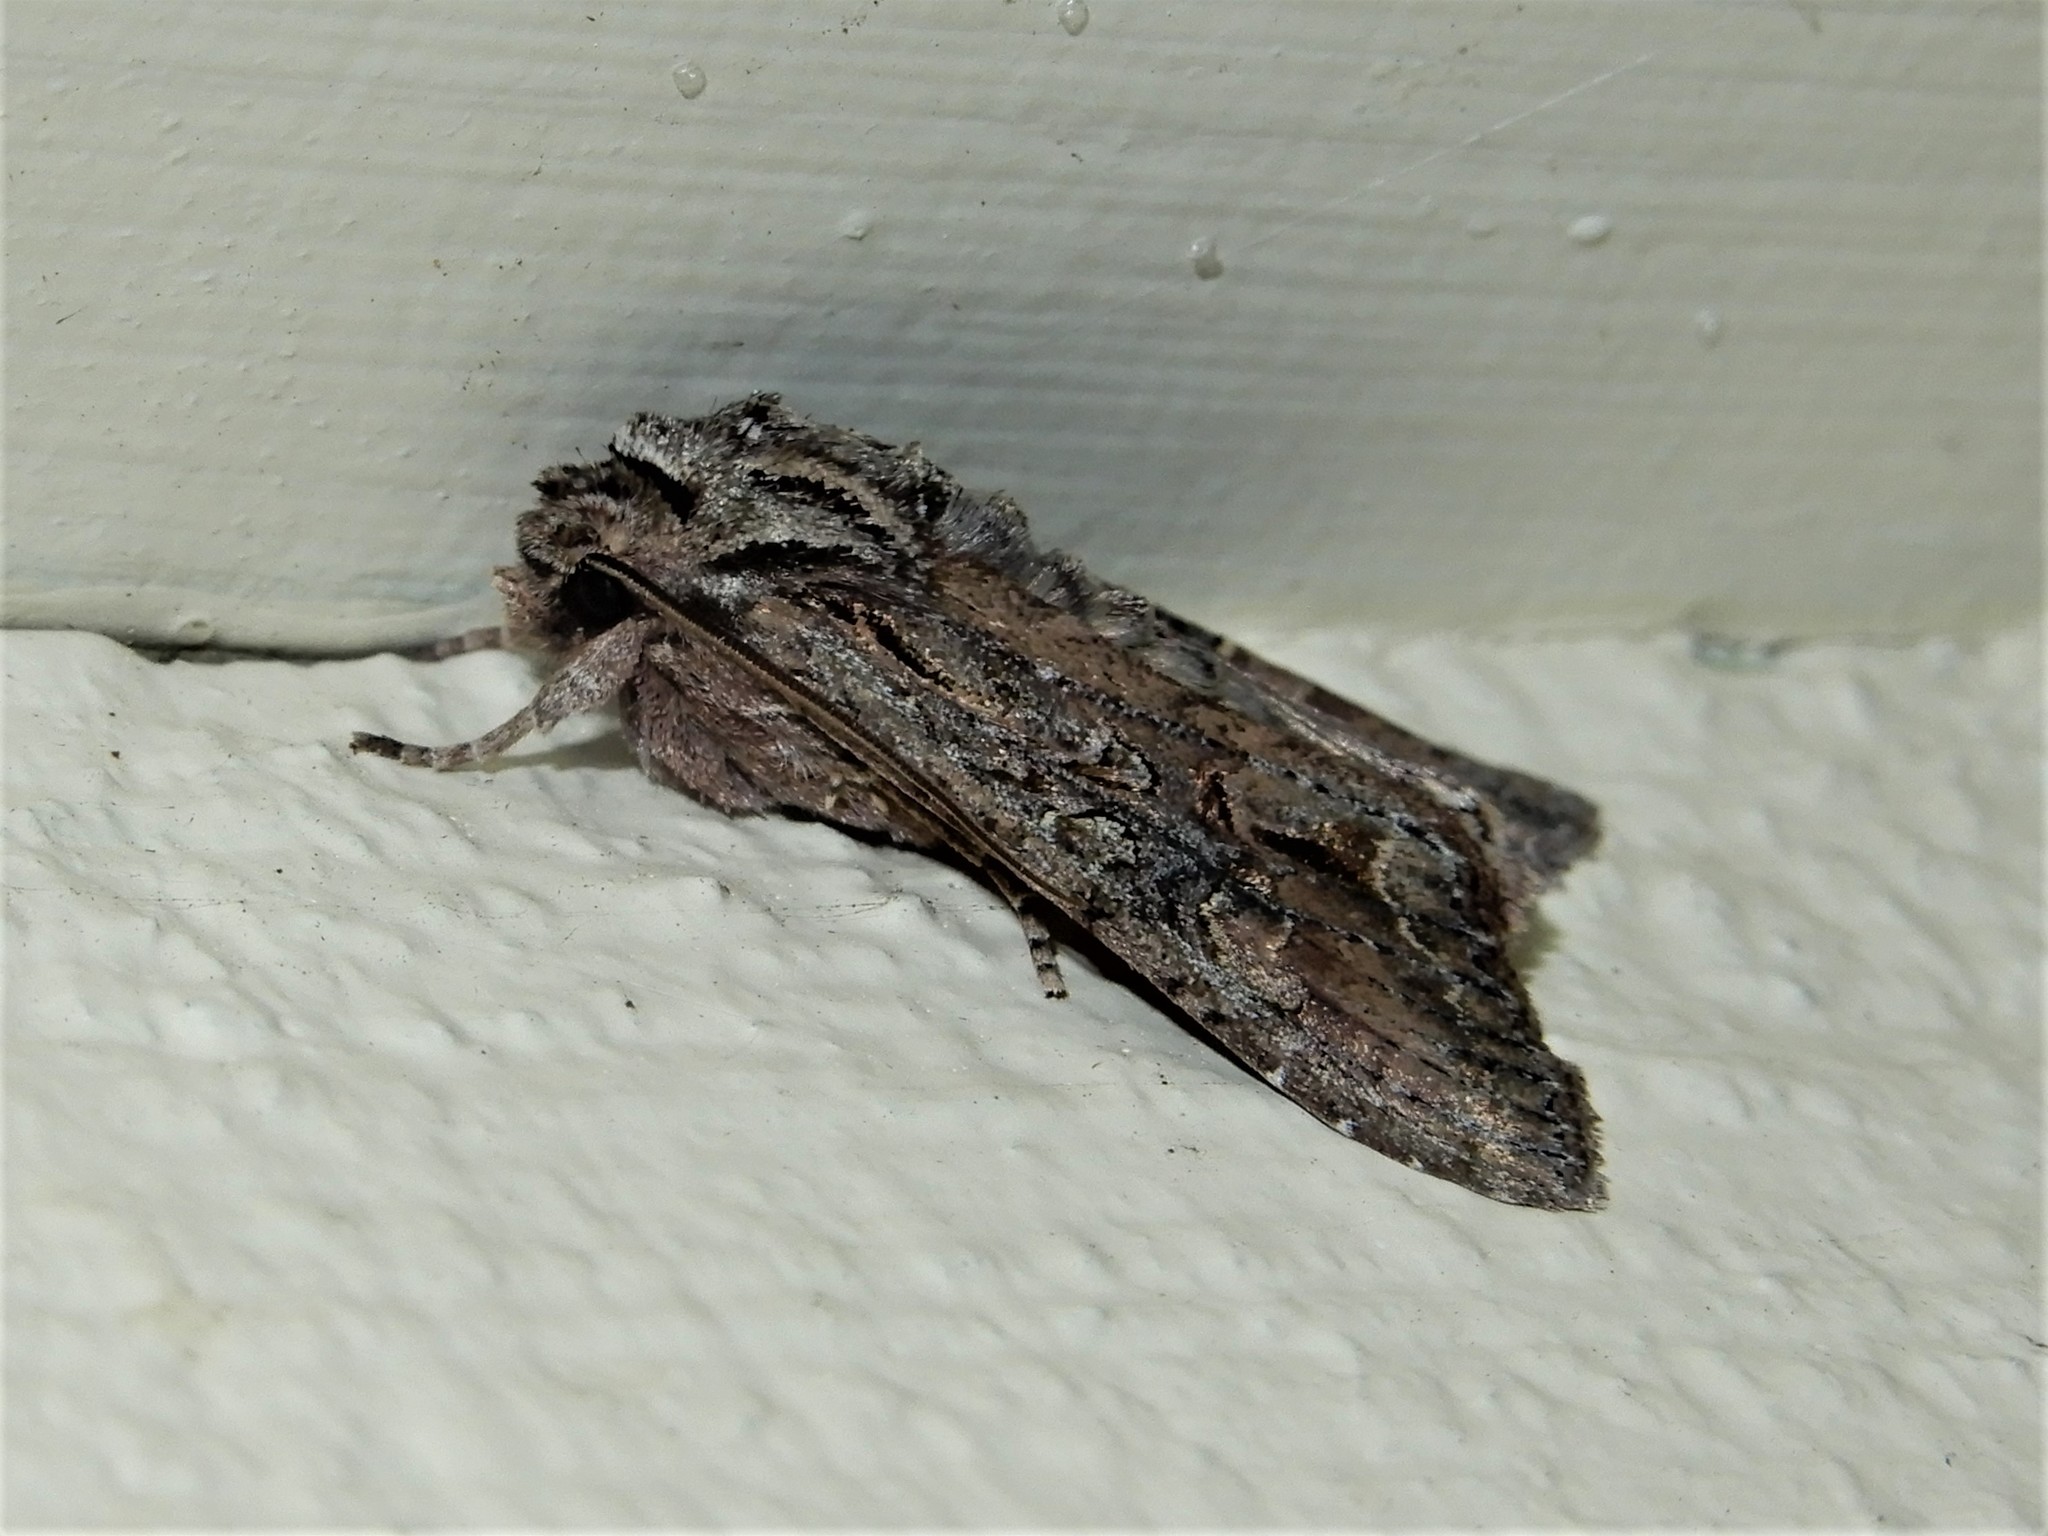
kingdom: Animalia
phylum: Arthropoda
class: Insecta
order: Lepidoptera
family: Noctuidae
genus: Ichneutica
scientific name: Ichneutica mutans
